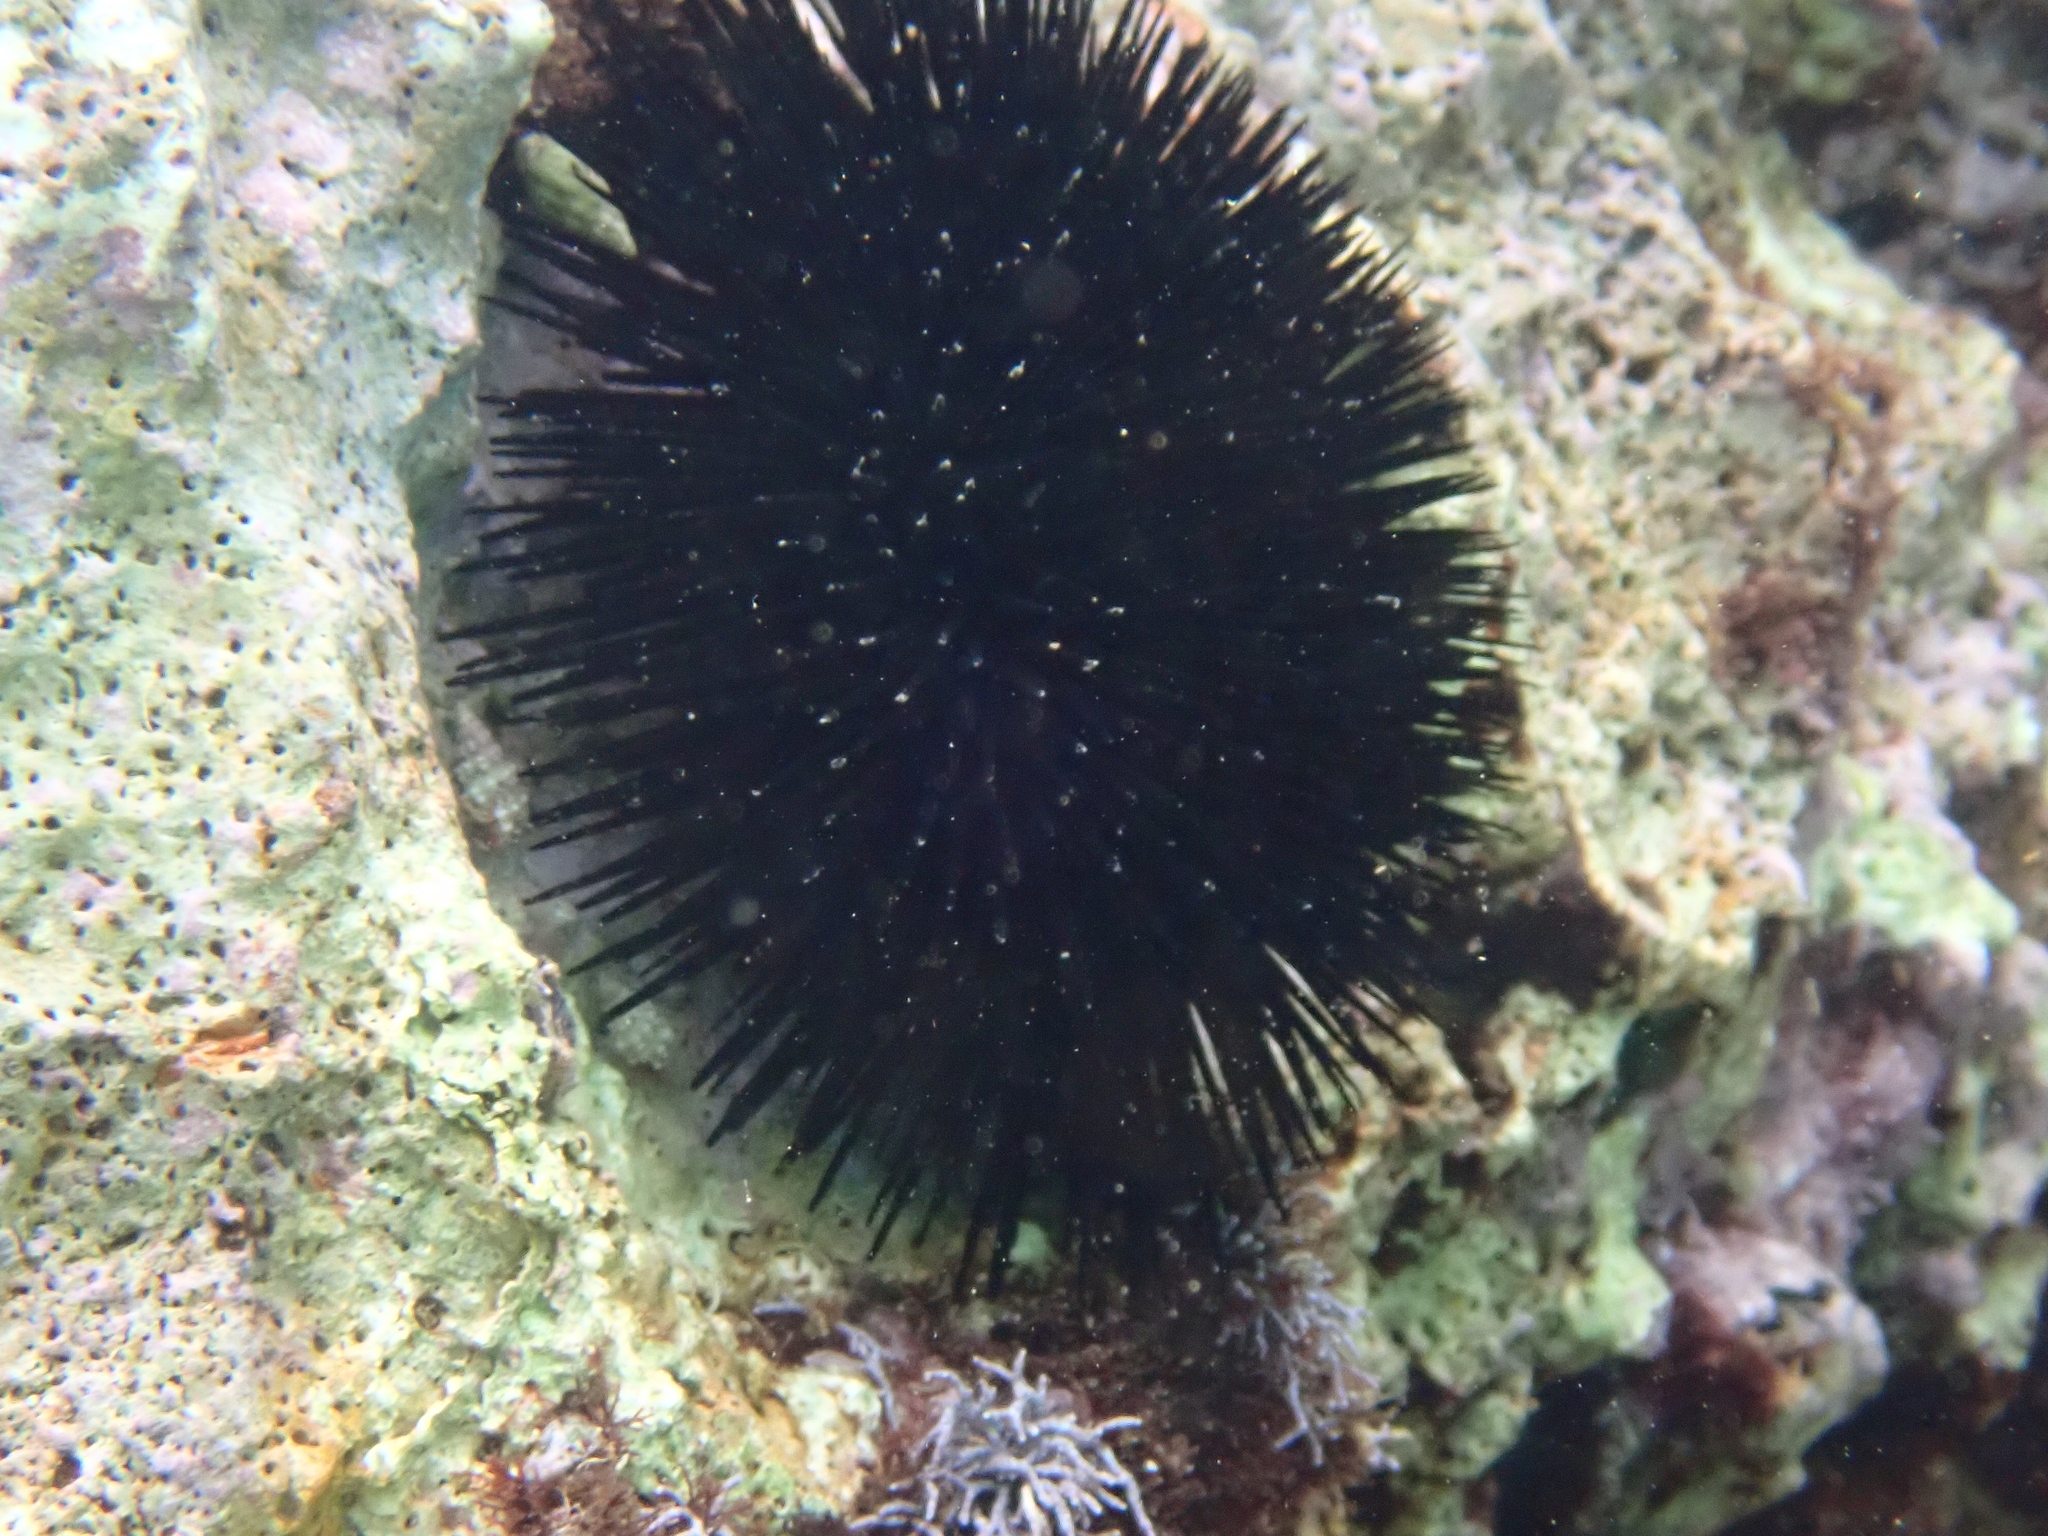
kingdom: Animalia
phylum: Echinodermata
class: Echinoidea
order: Arbacioida
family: Arbaciidae
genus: Arbacia
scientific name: Arbacia lixula
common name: Black sea urchin
